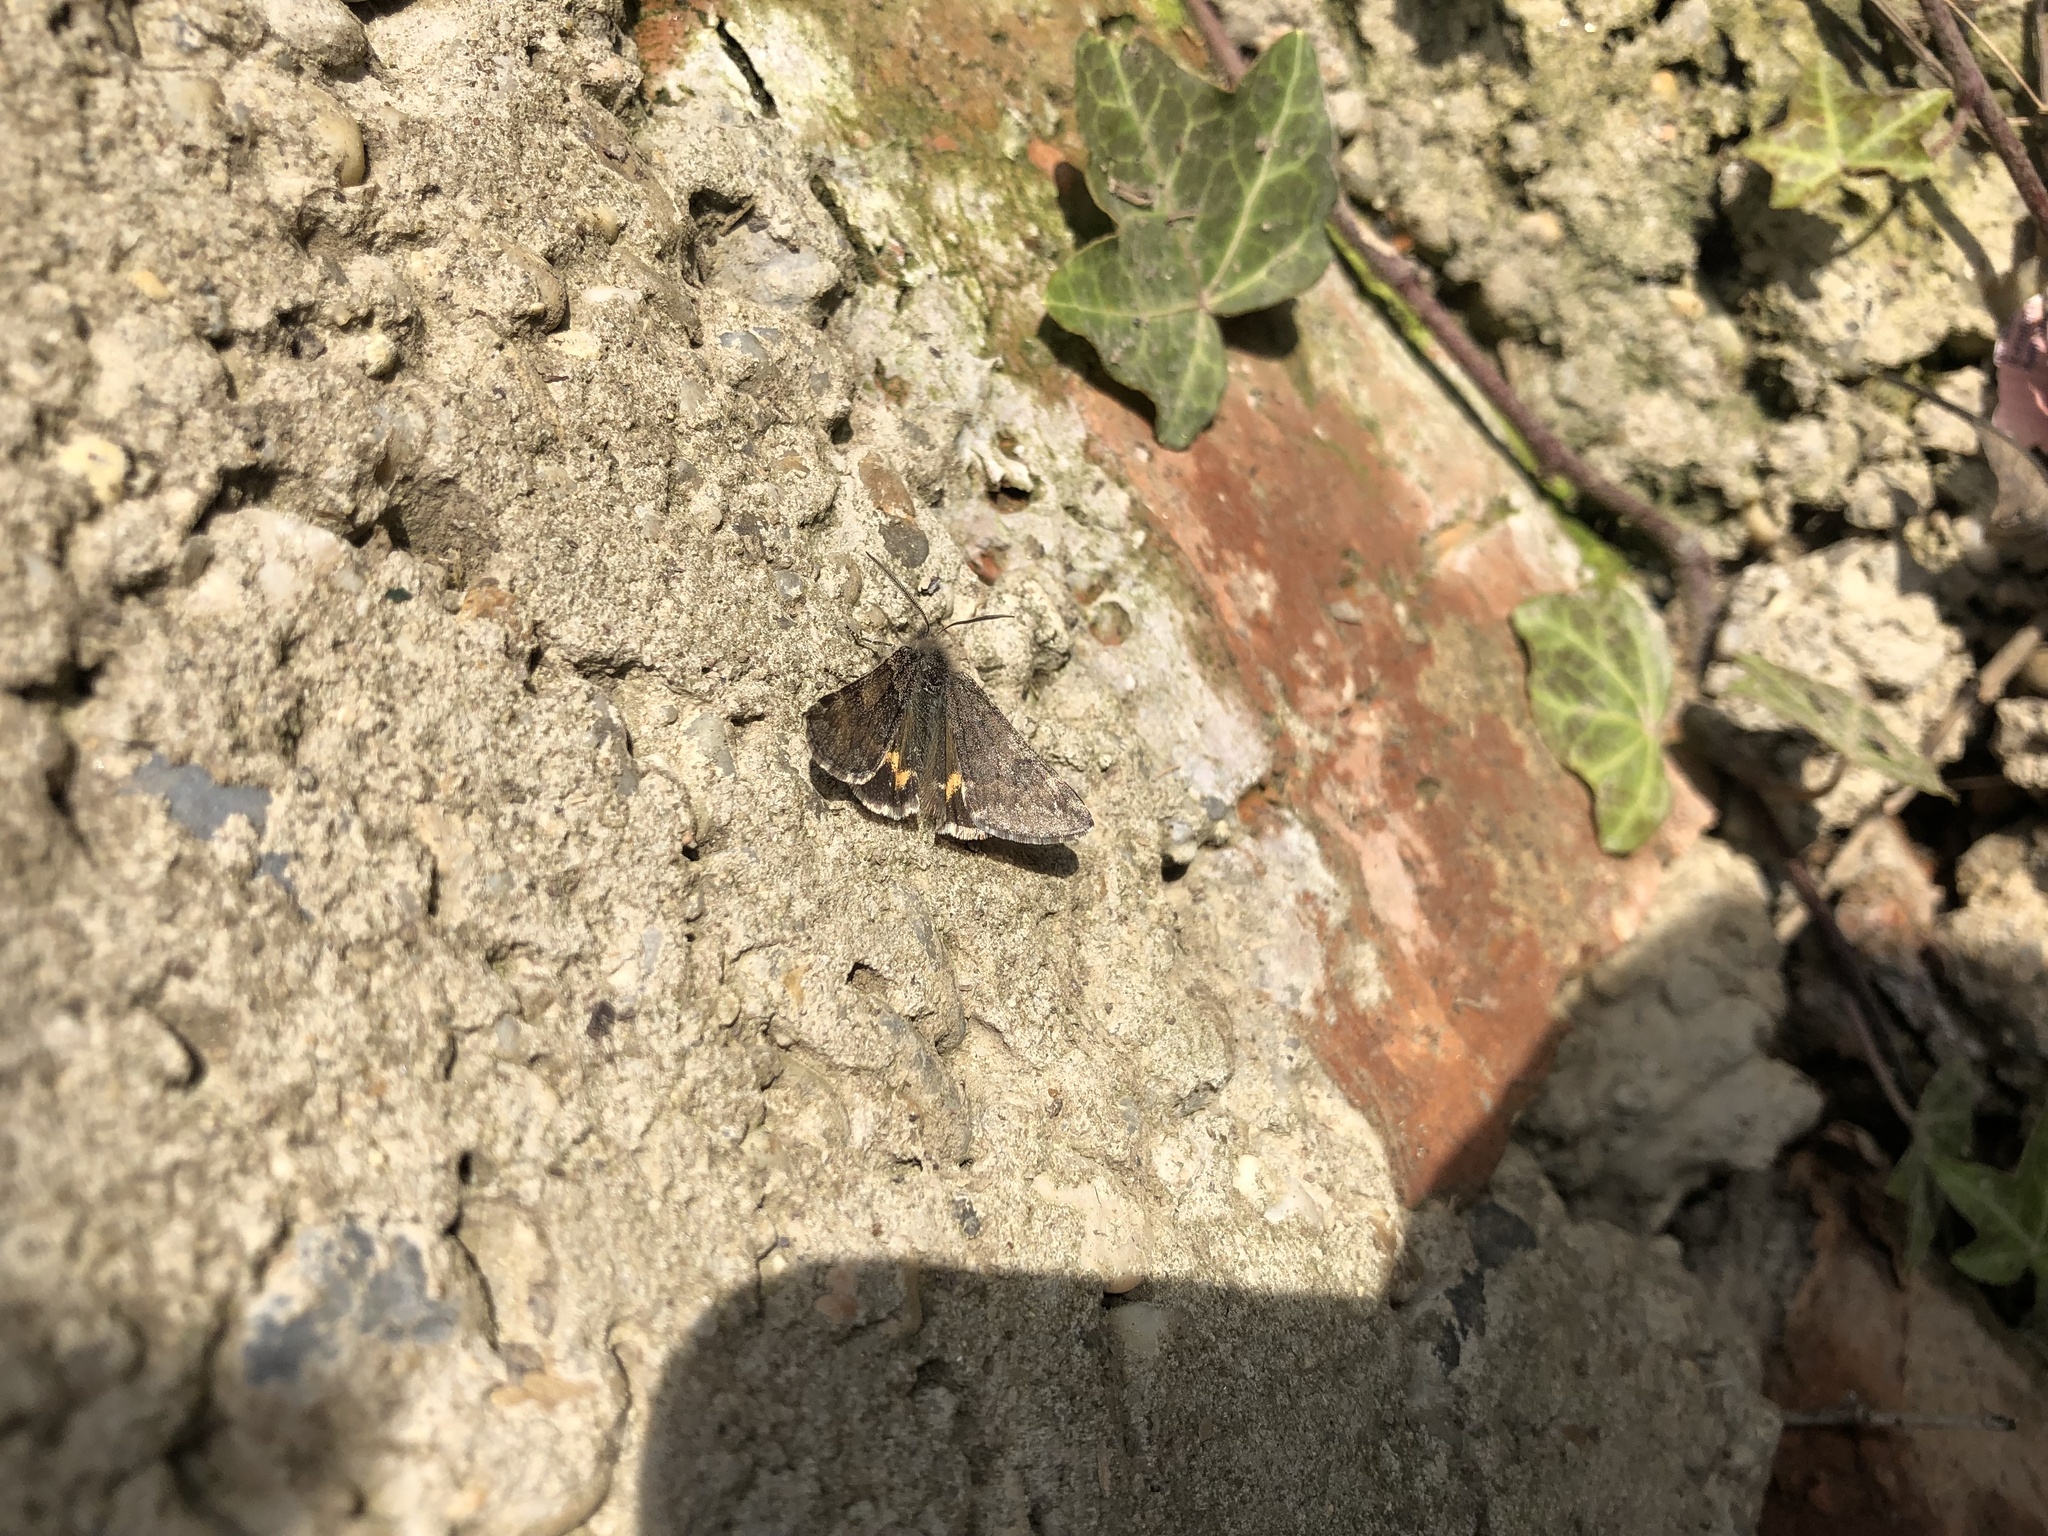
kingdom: Animalia
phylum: Arthropoda
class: Insecta
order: Lepidoptera
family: Geometridae
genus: Boudinotiana
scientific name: Boudinotiana puella
